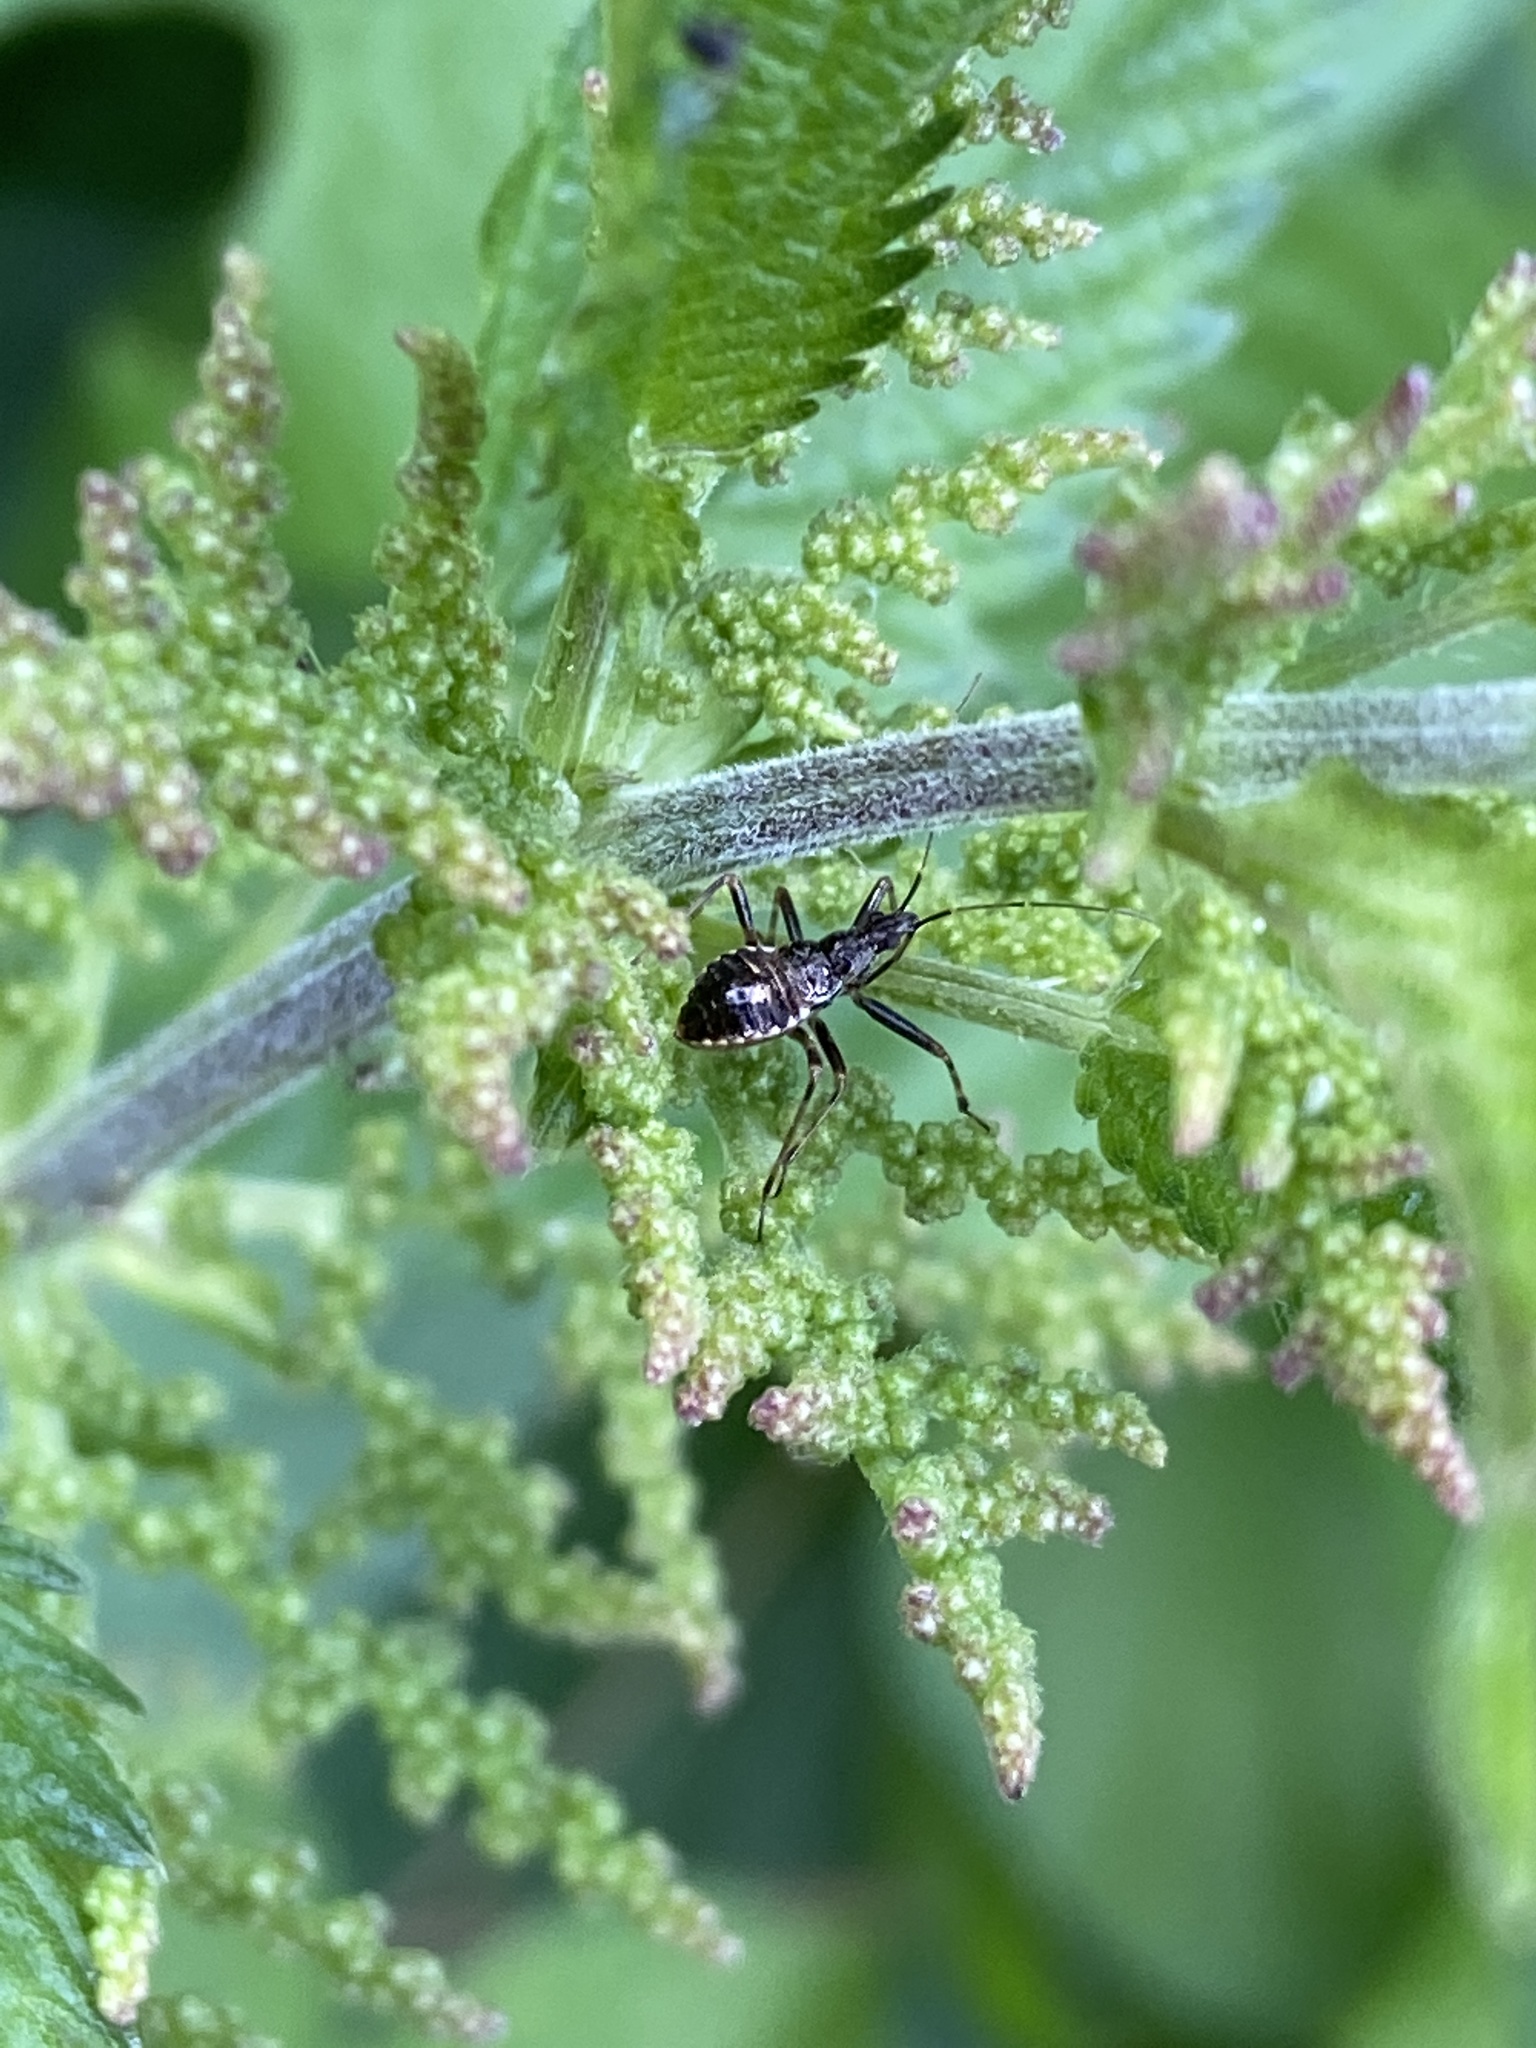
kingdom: Animalia
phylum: Arthropoda
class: Insecta
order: Hemiptera
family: Nabidae
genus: Himacerus
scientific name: Himacerus apterus
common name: Tree damsel bug
